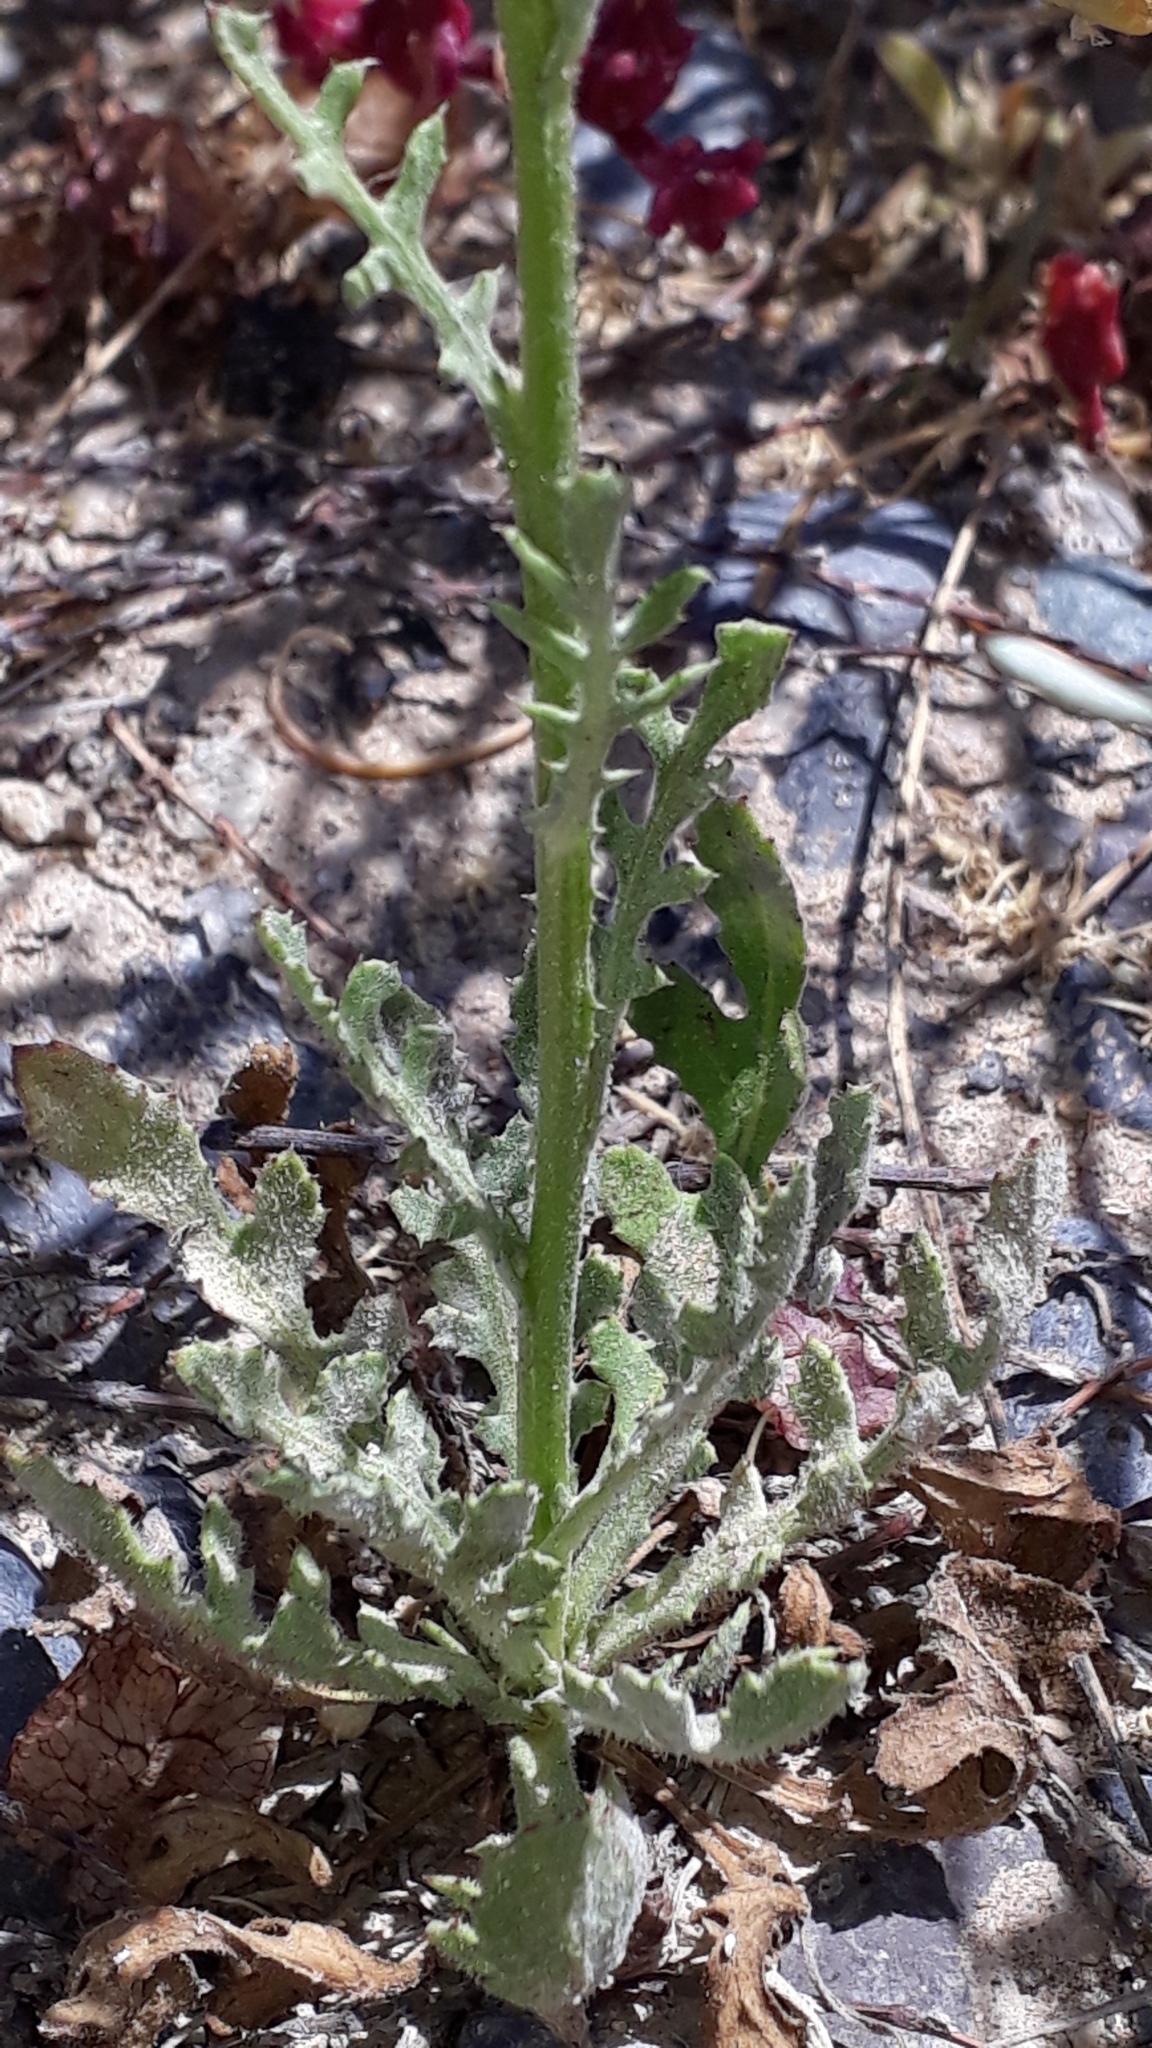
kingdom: Plantae
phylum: Tracheophyta
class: Magnoliopsida
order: Asterales
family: Asteraceae
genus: Volutaria
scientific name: Volutaria canariensis
